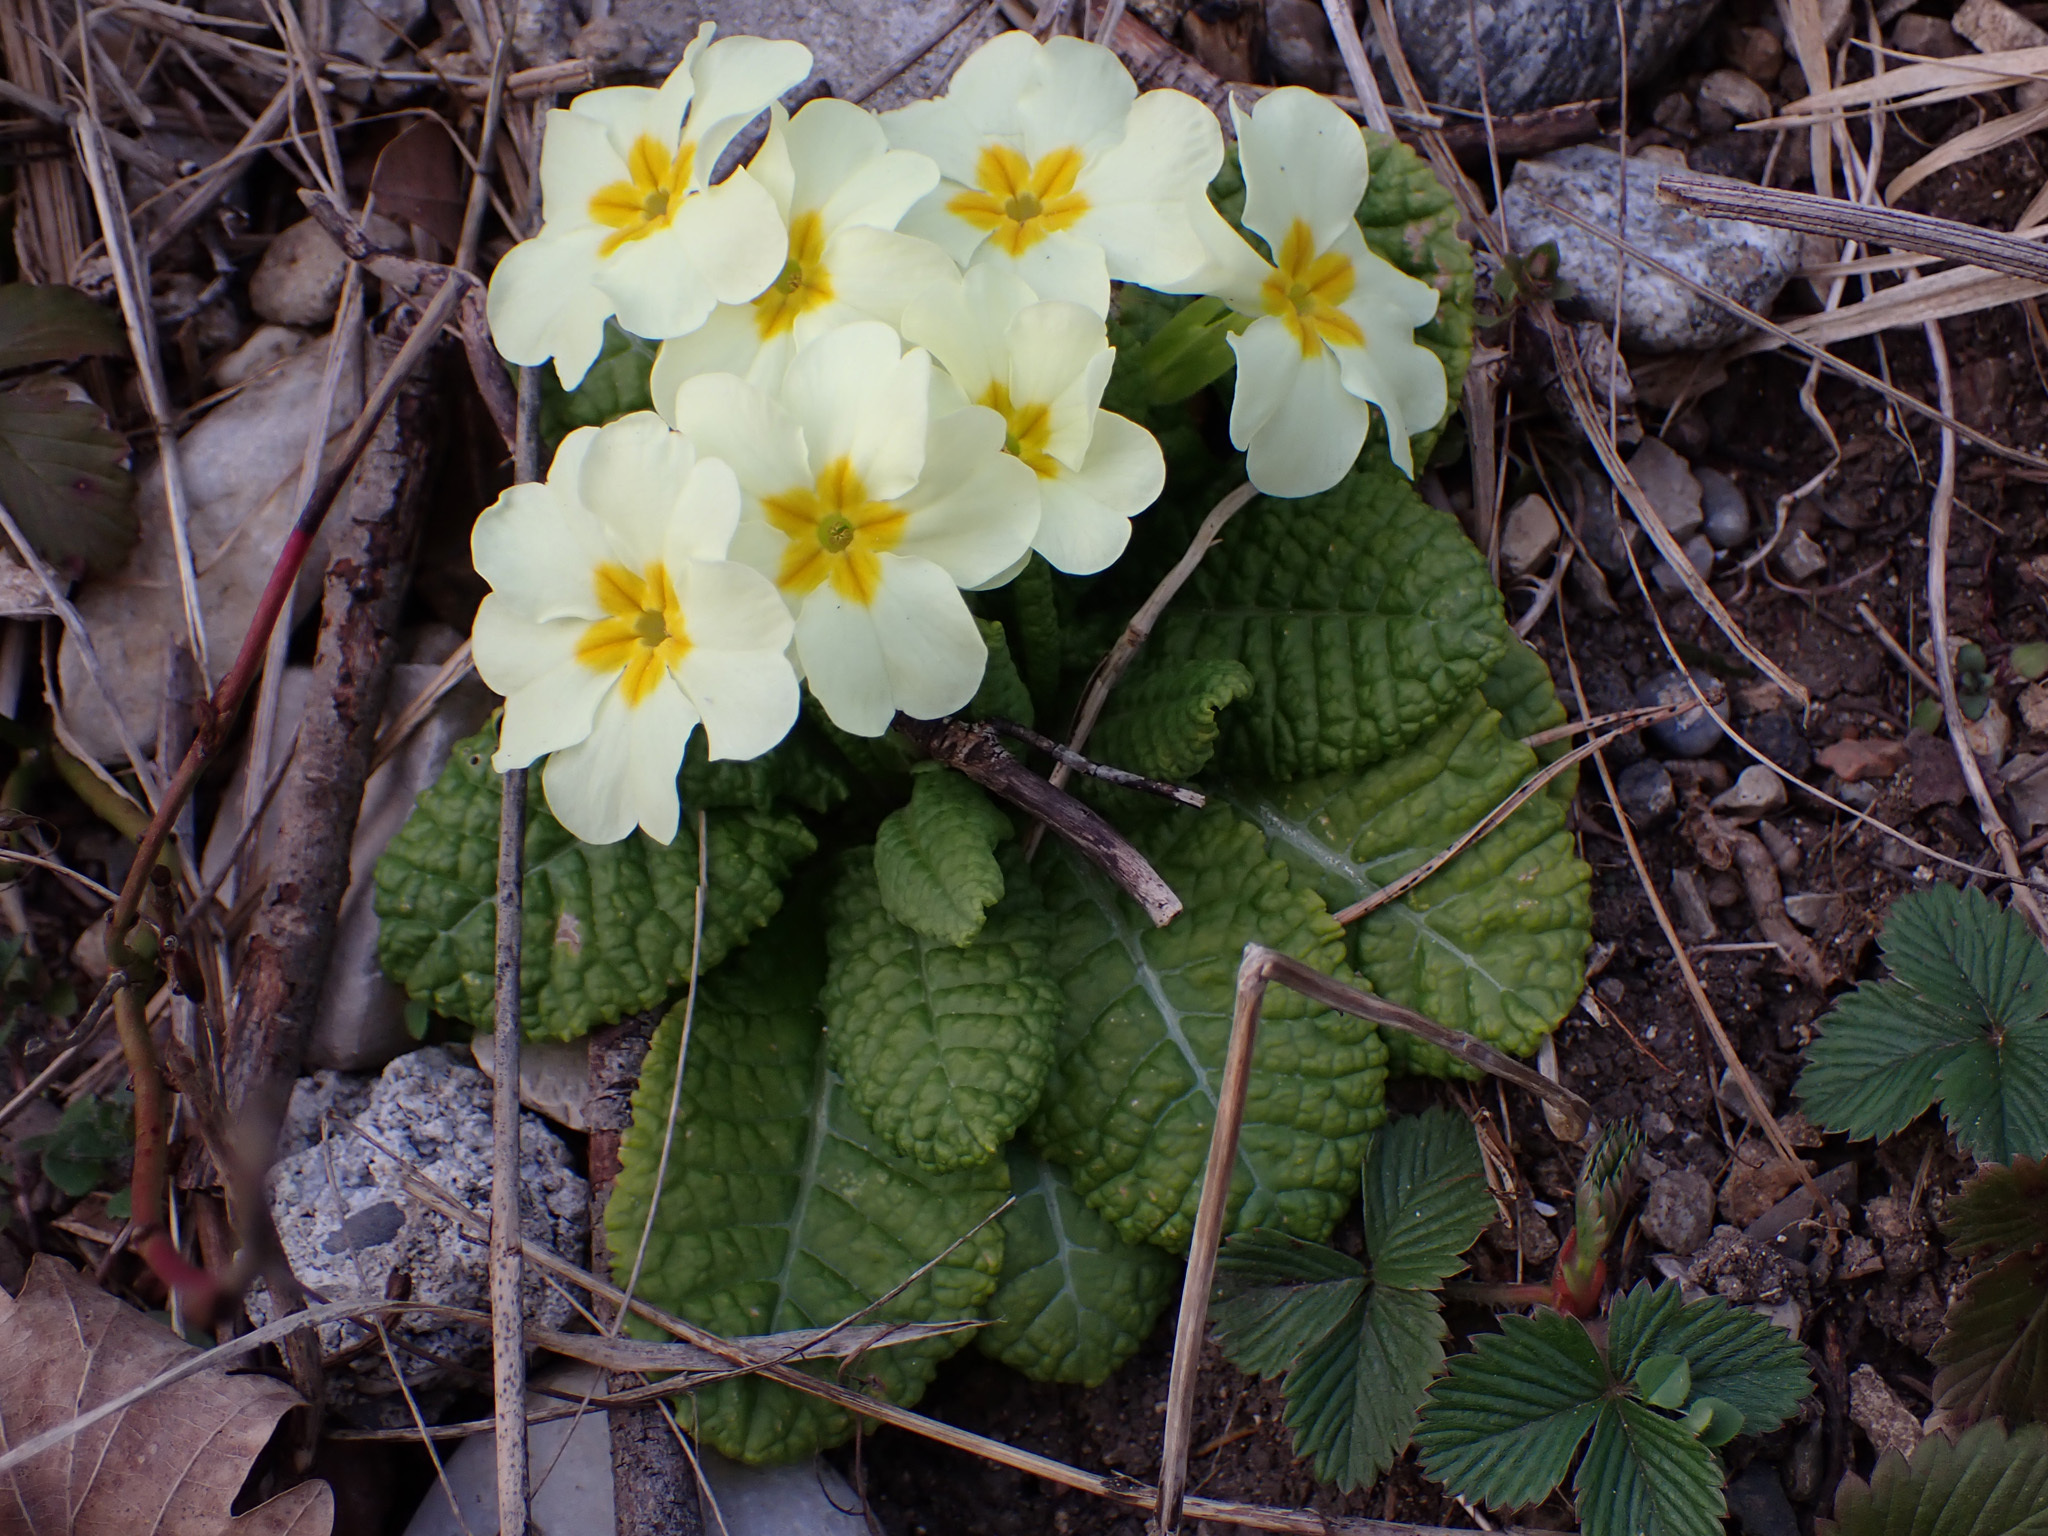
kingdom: Plantae
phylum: Tracheophyta
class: Magnoliopsida
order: Ericales
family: Primulaceae
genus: Primula
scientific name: Primula vulgaris
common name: Primrose
